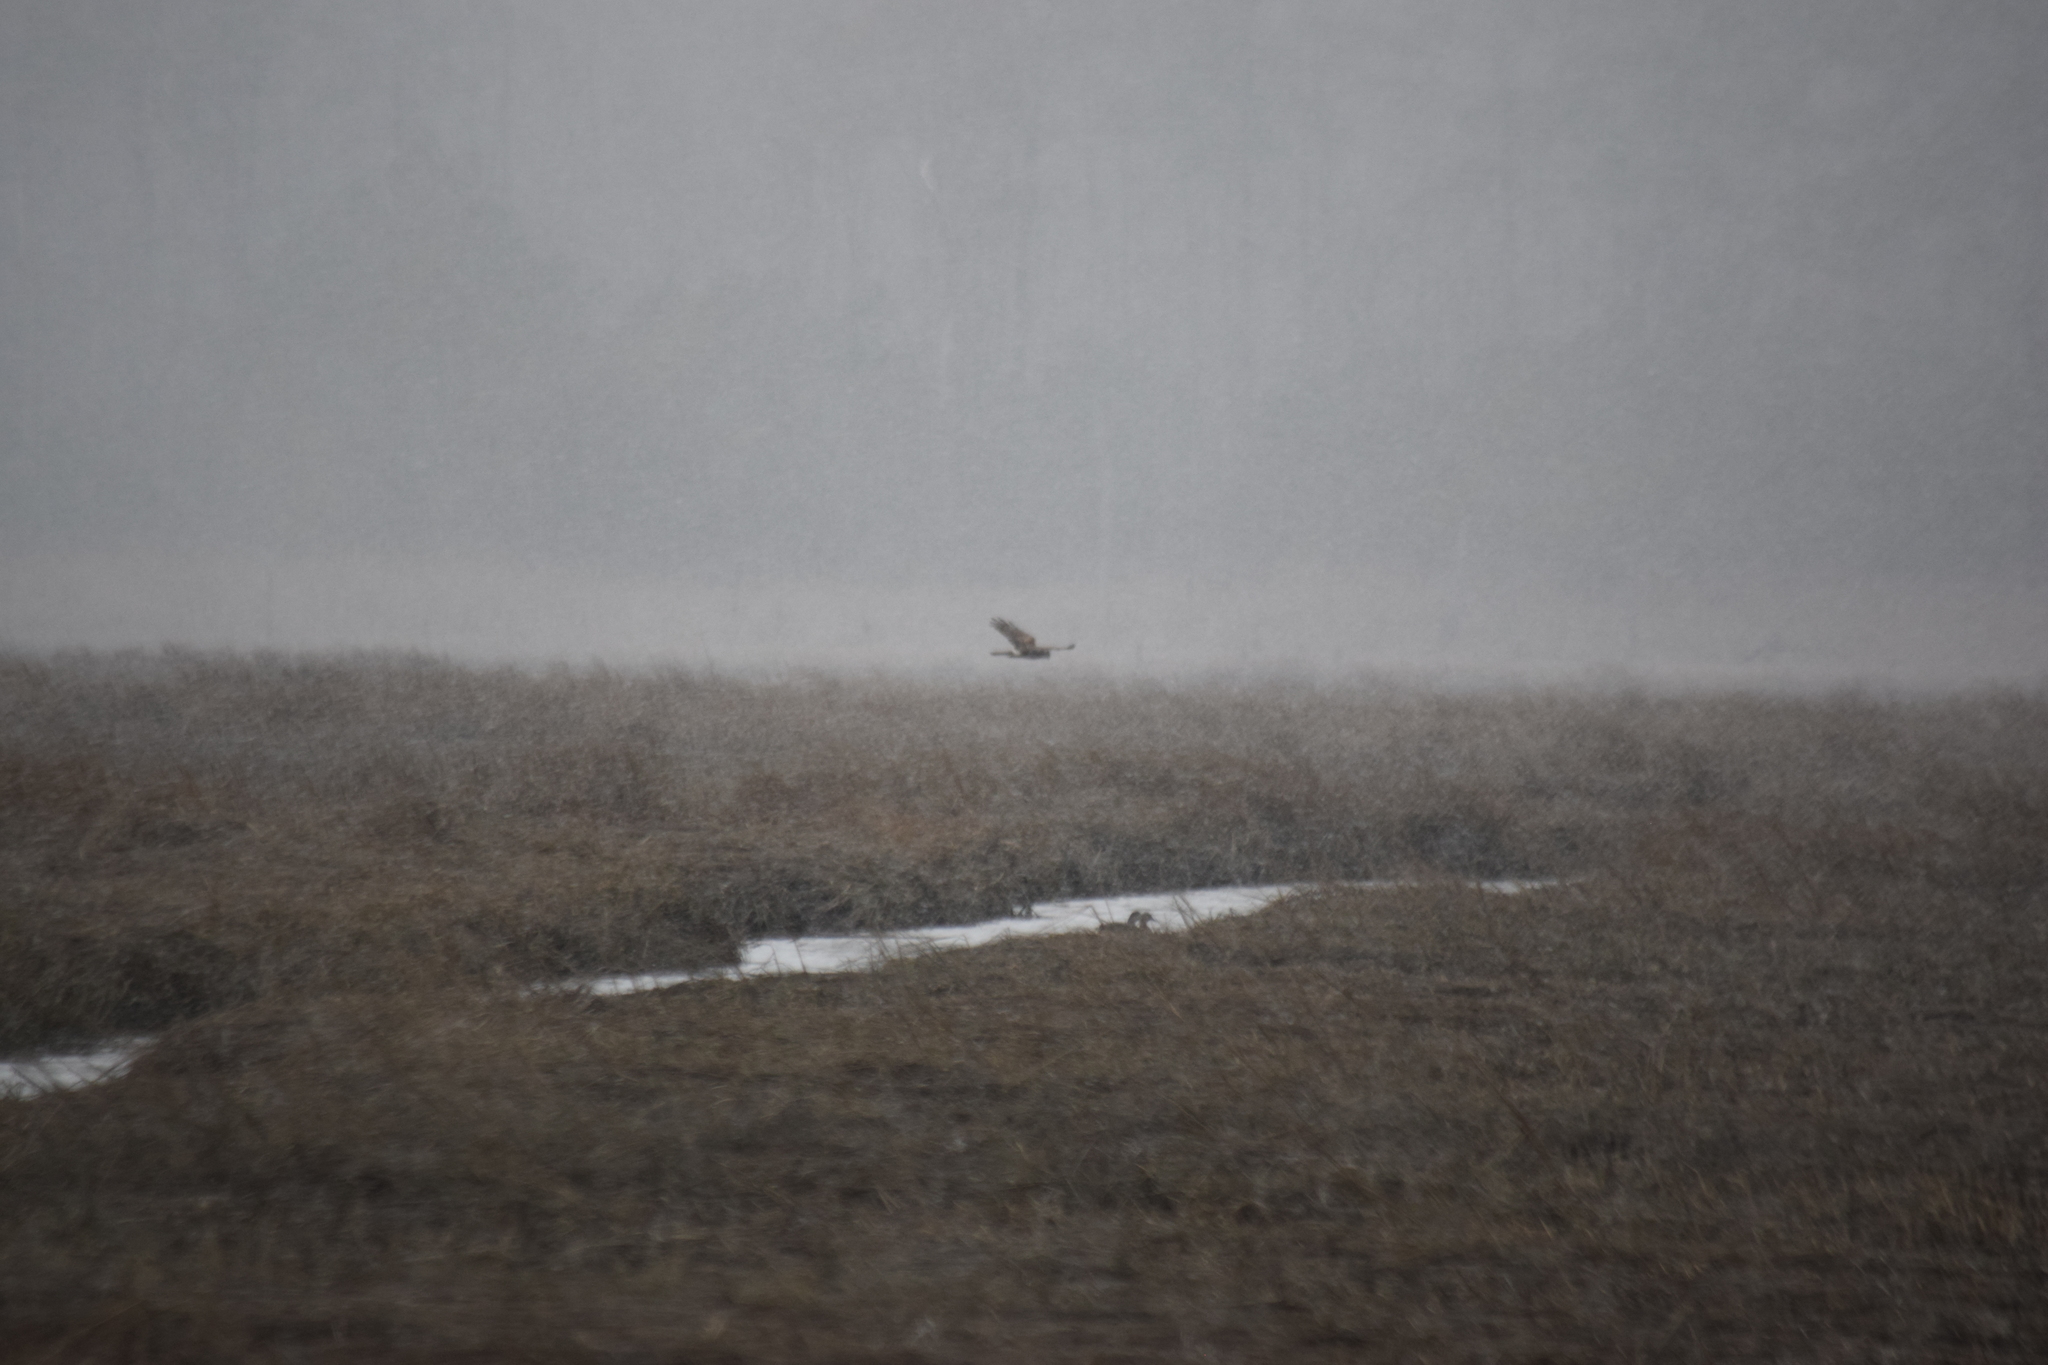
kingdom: Animalia
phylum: Chordata
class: Aves
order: Accipitriformes
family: Accipitridae
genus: Circus
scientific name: Circus cyaneus
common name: Hen harrier
